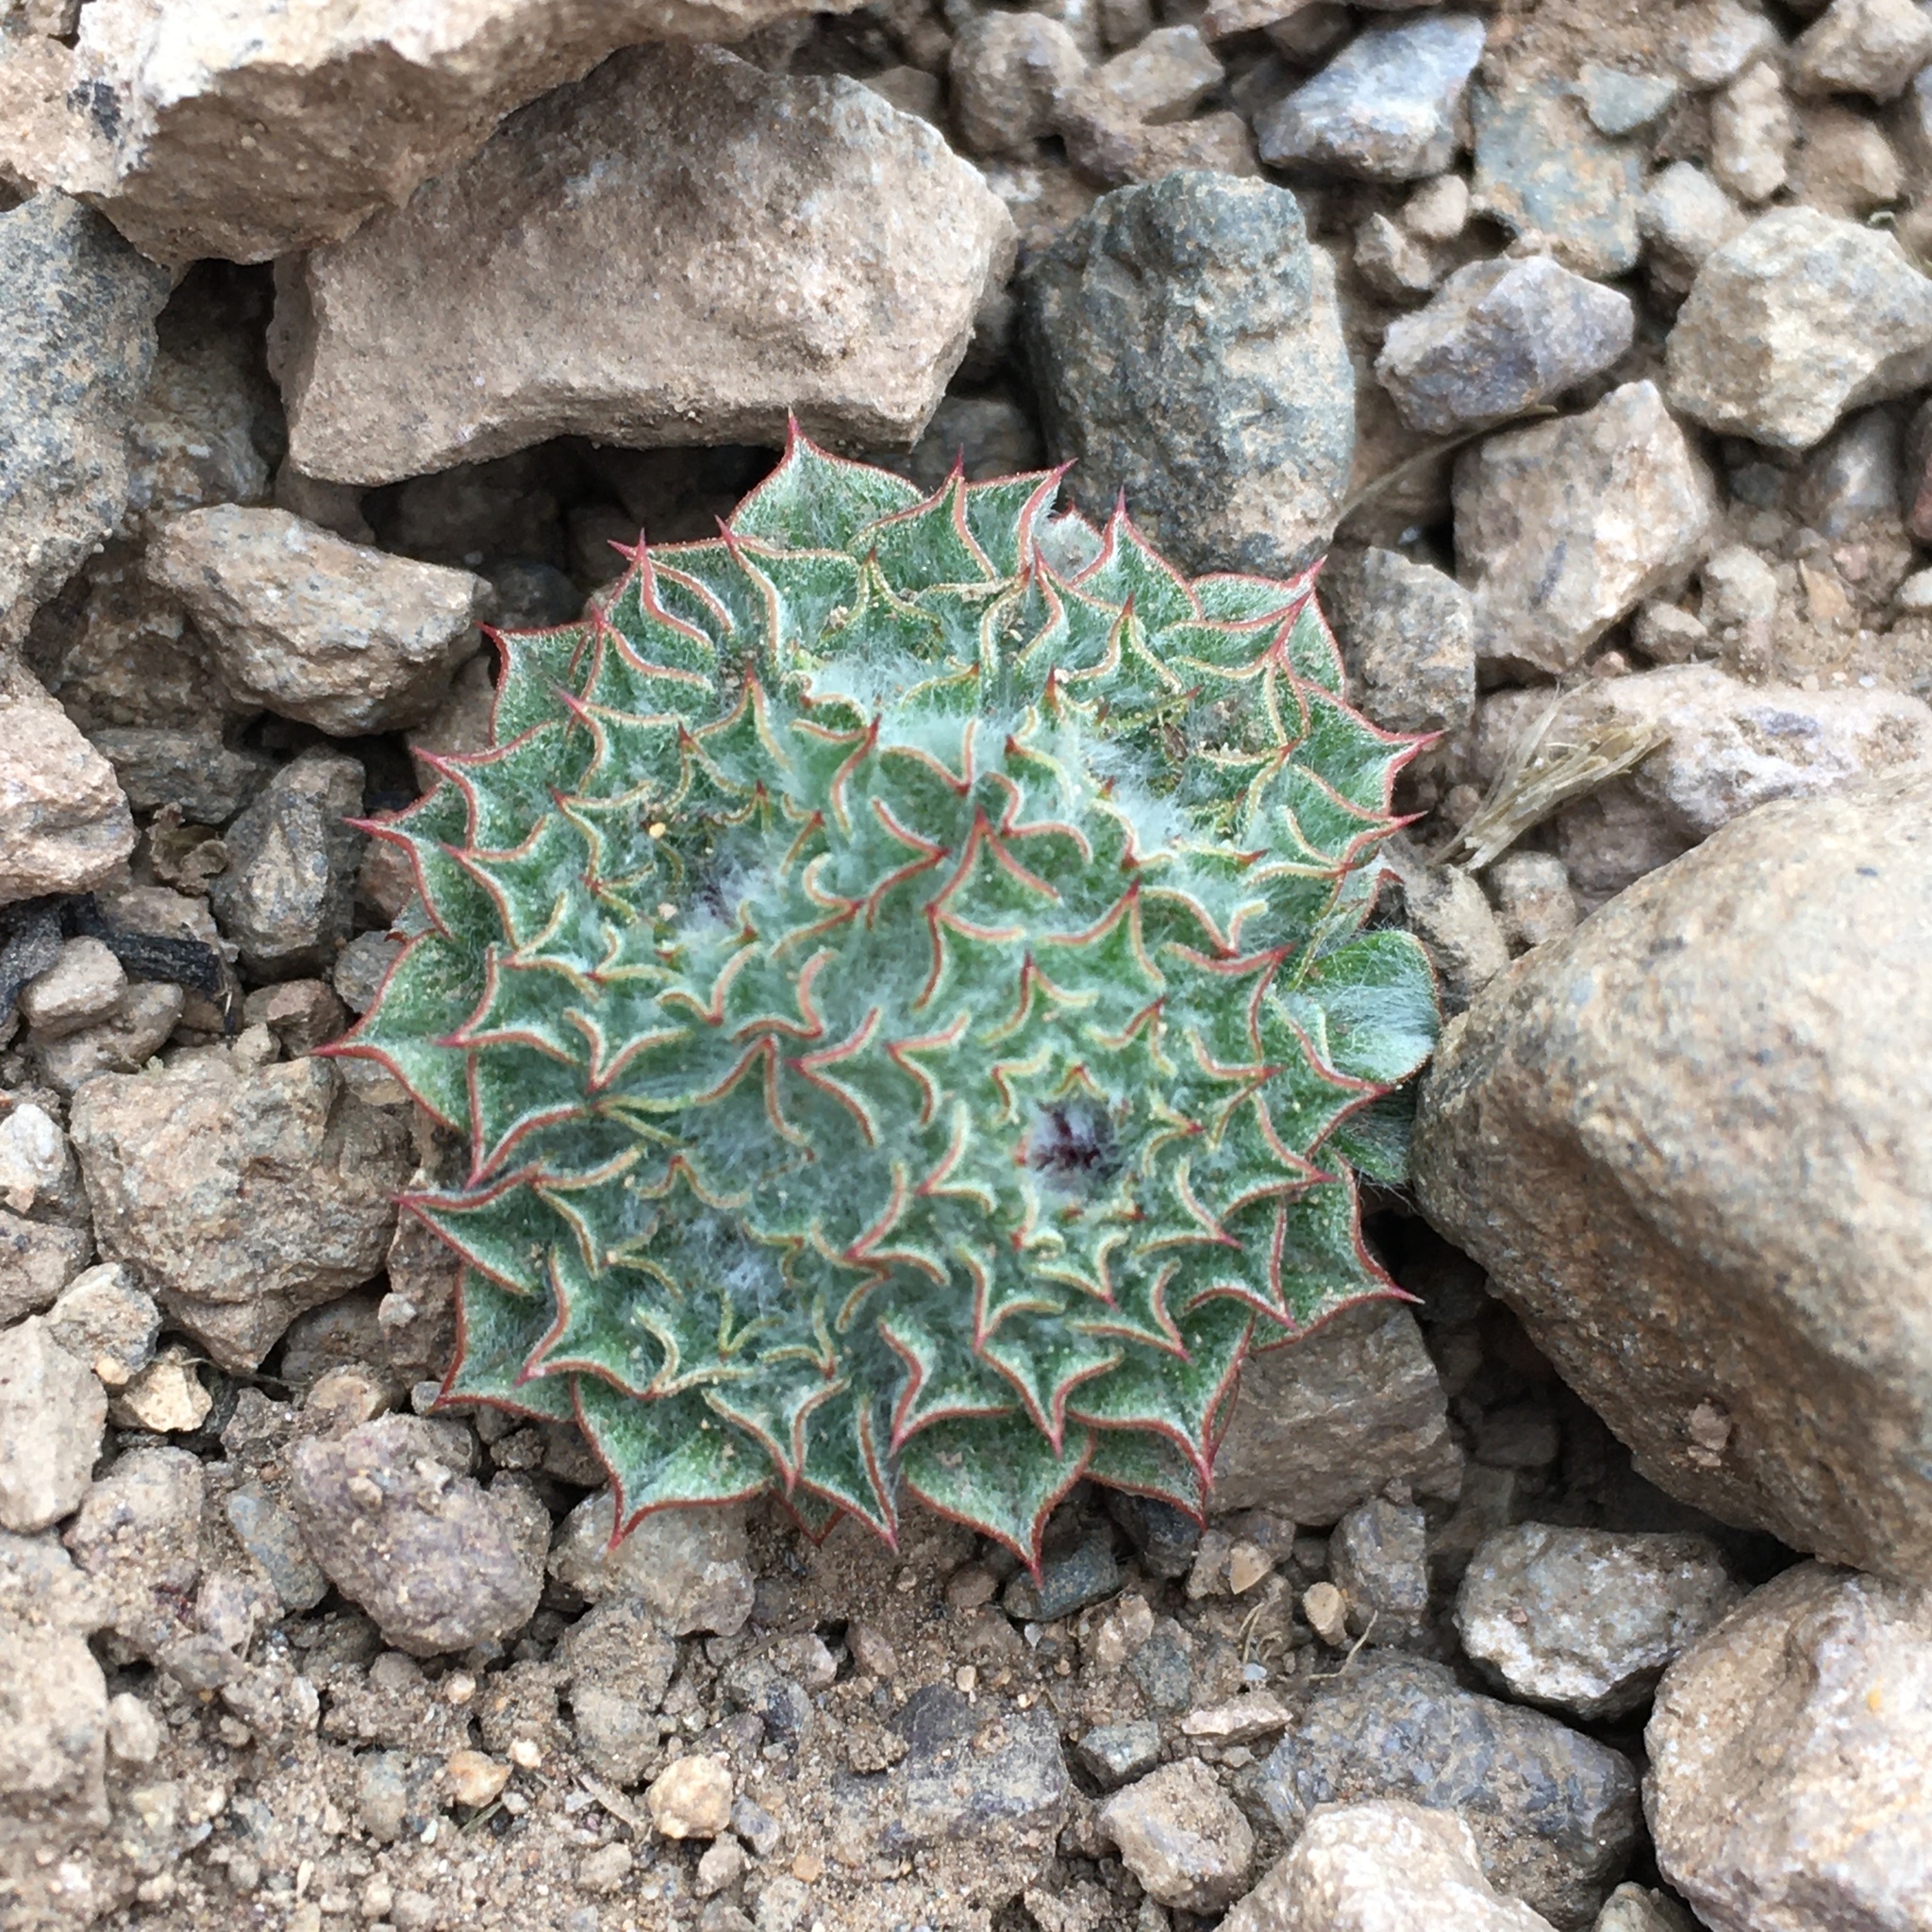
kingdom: Plantae
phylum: Tracheophyta
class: Magnoliopsida
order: Asterales
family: Asteraceae
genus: Oriastrum
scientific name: Oriastrum chilense
